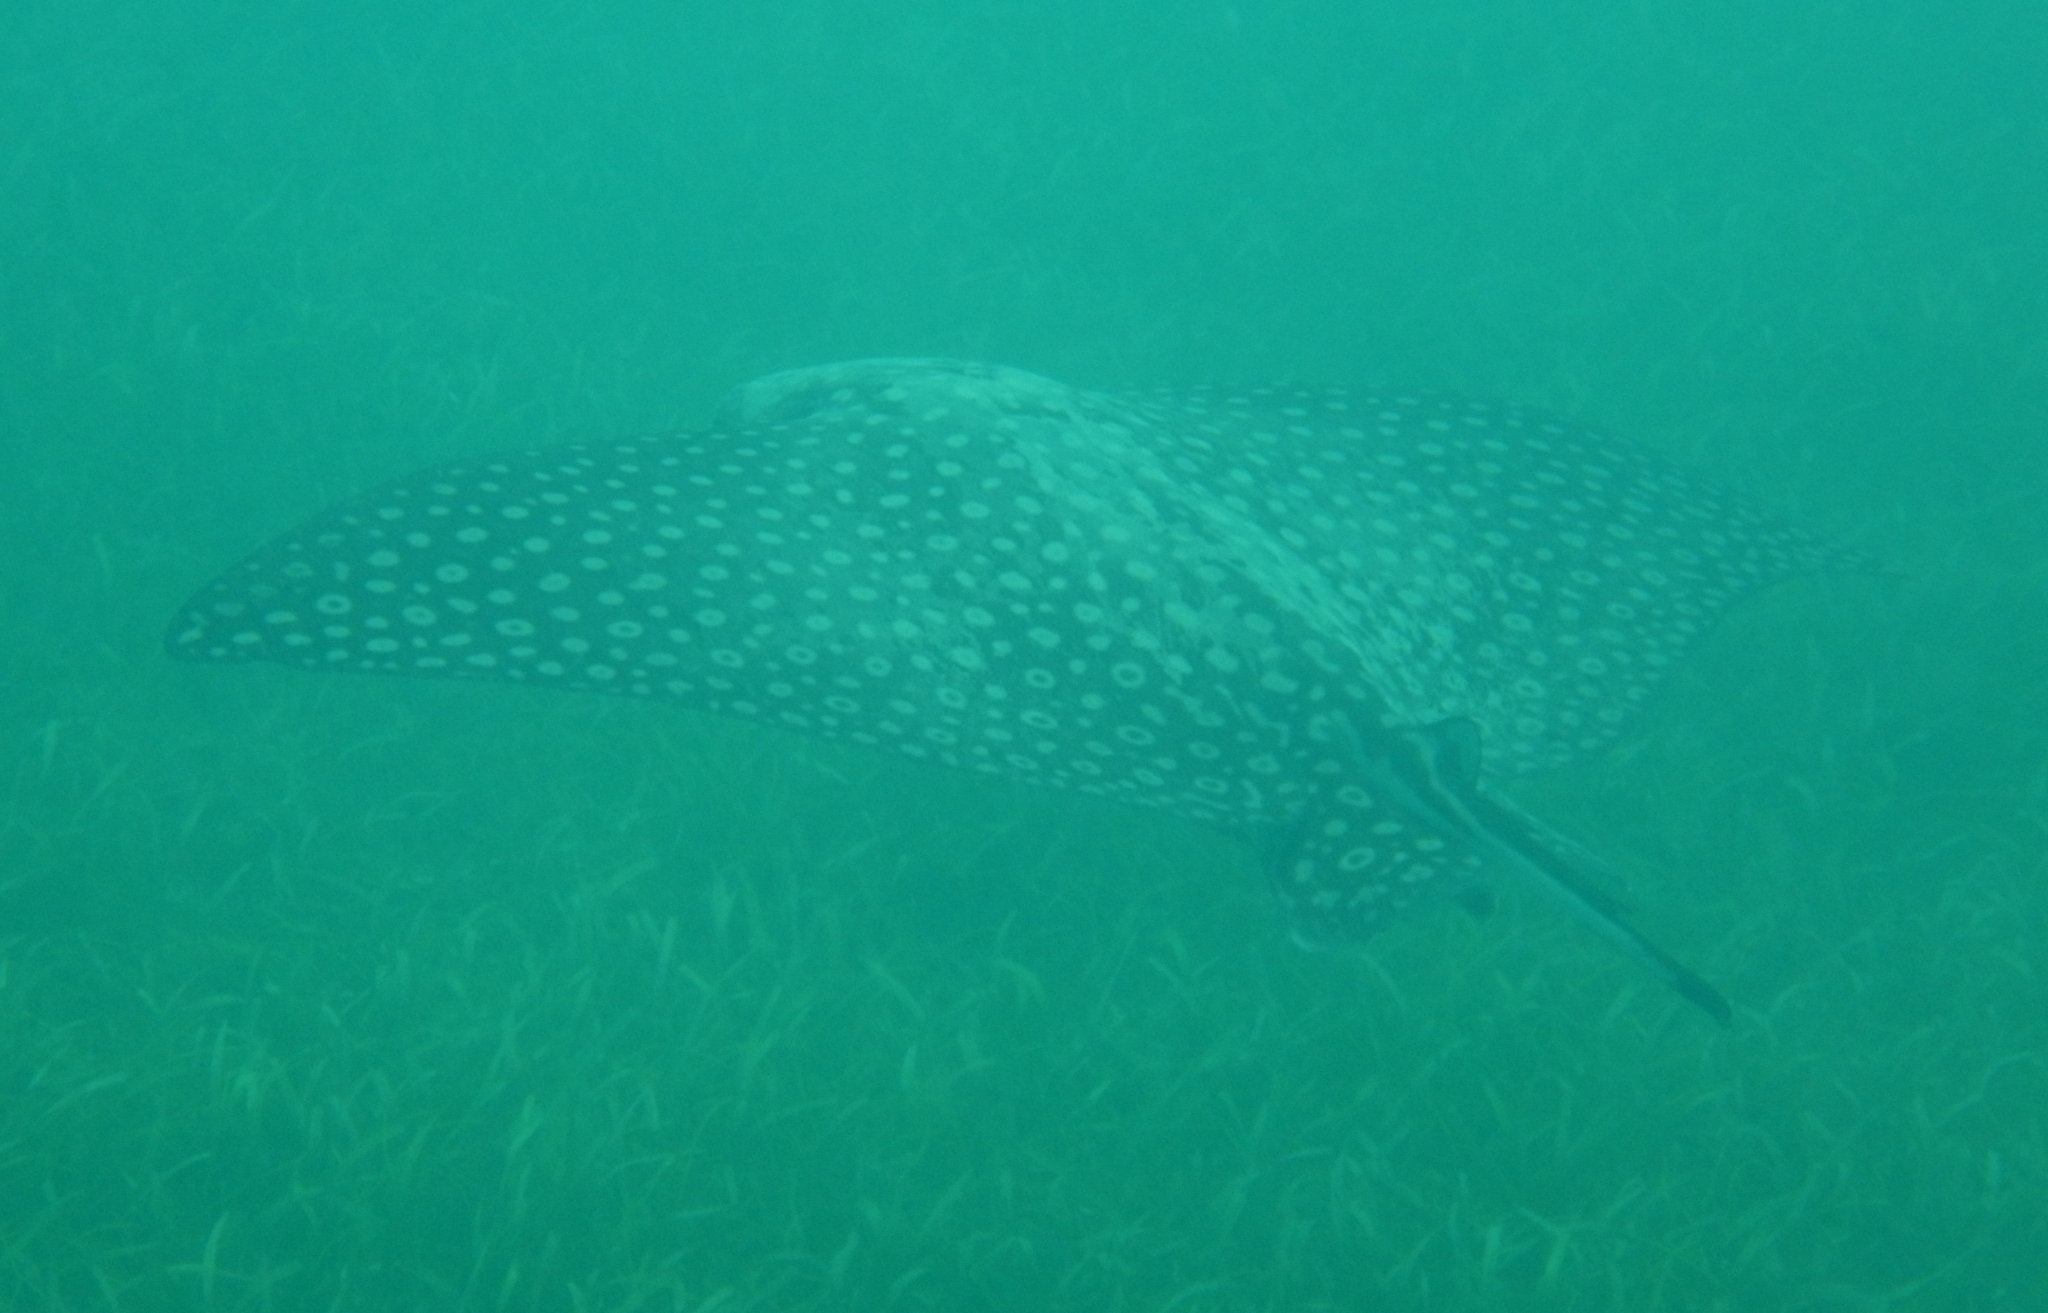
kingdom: Animalia
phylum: Chordata
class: Elasmobranchii
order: Myliobatiformes
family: Myliobatidae
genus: Aetobatus
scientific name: Aetobatus narinari
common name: Spotted eagle ray
